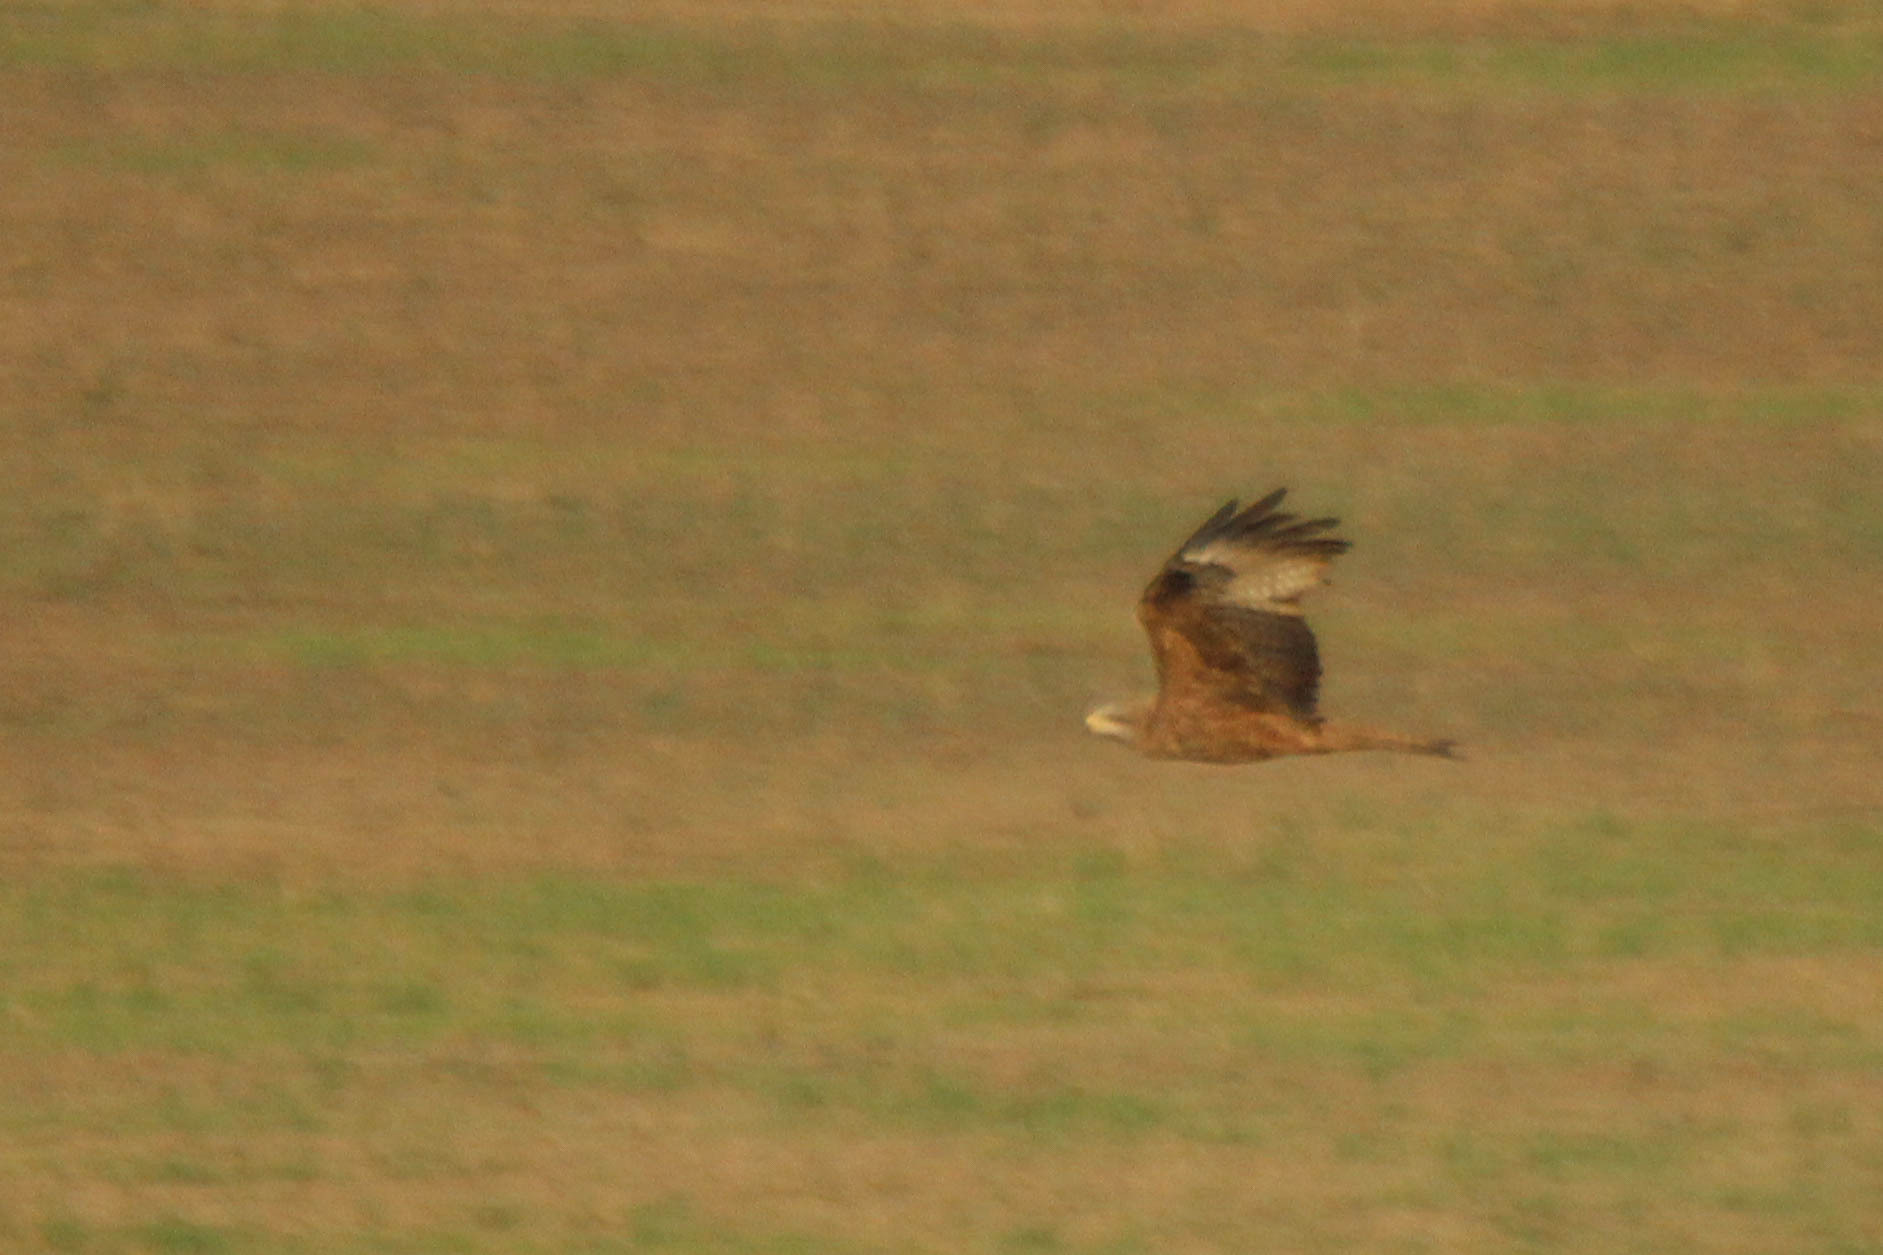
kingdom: Animalia
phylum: Chordata
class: Aves
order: Accipitriformes
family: Accipitridae
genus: Milvus
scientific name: Milvus migrans
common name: Black kite
